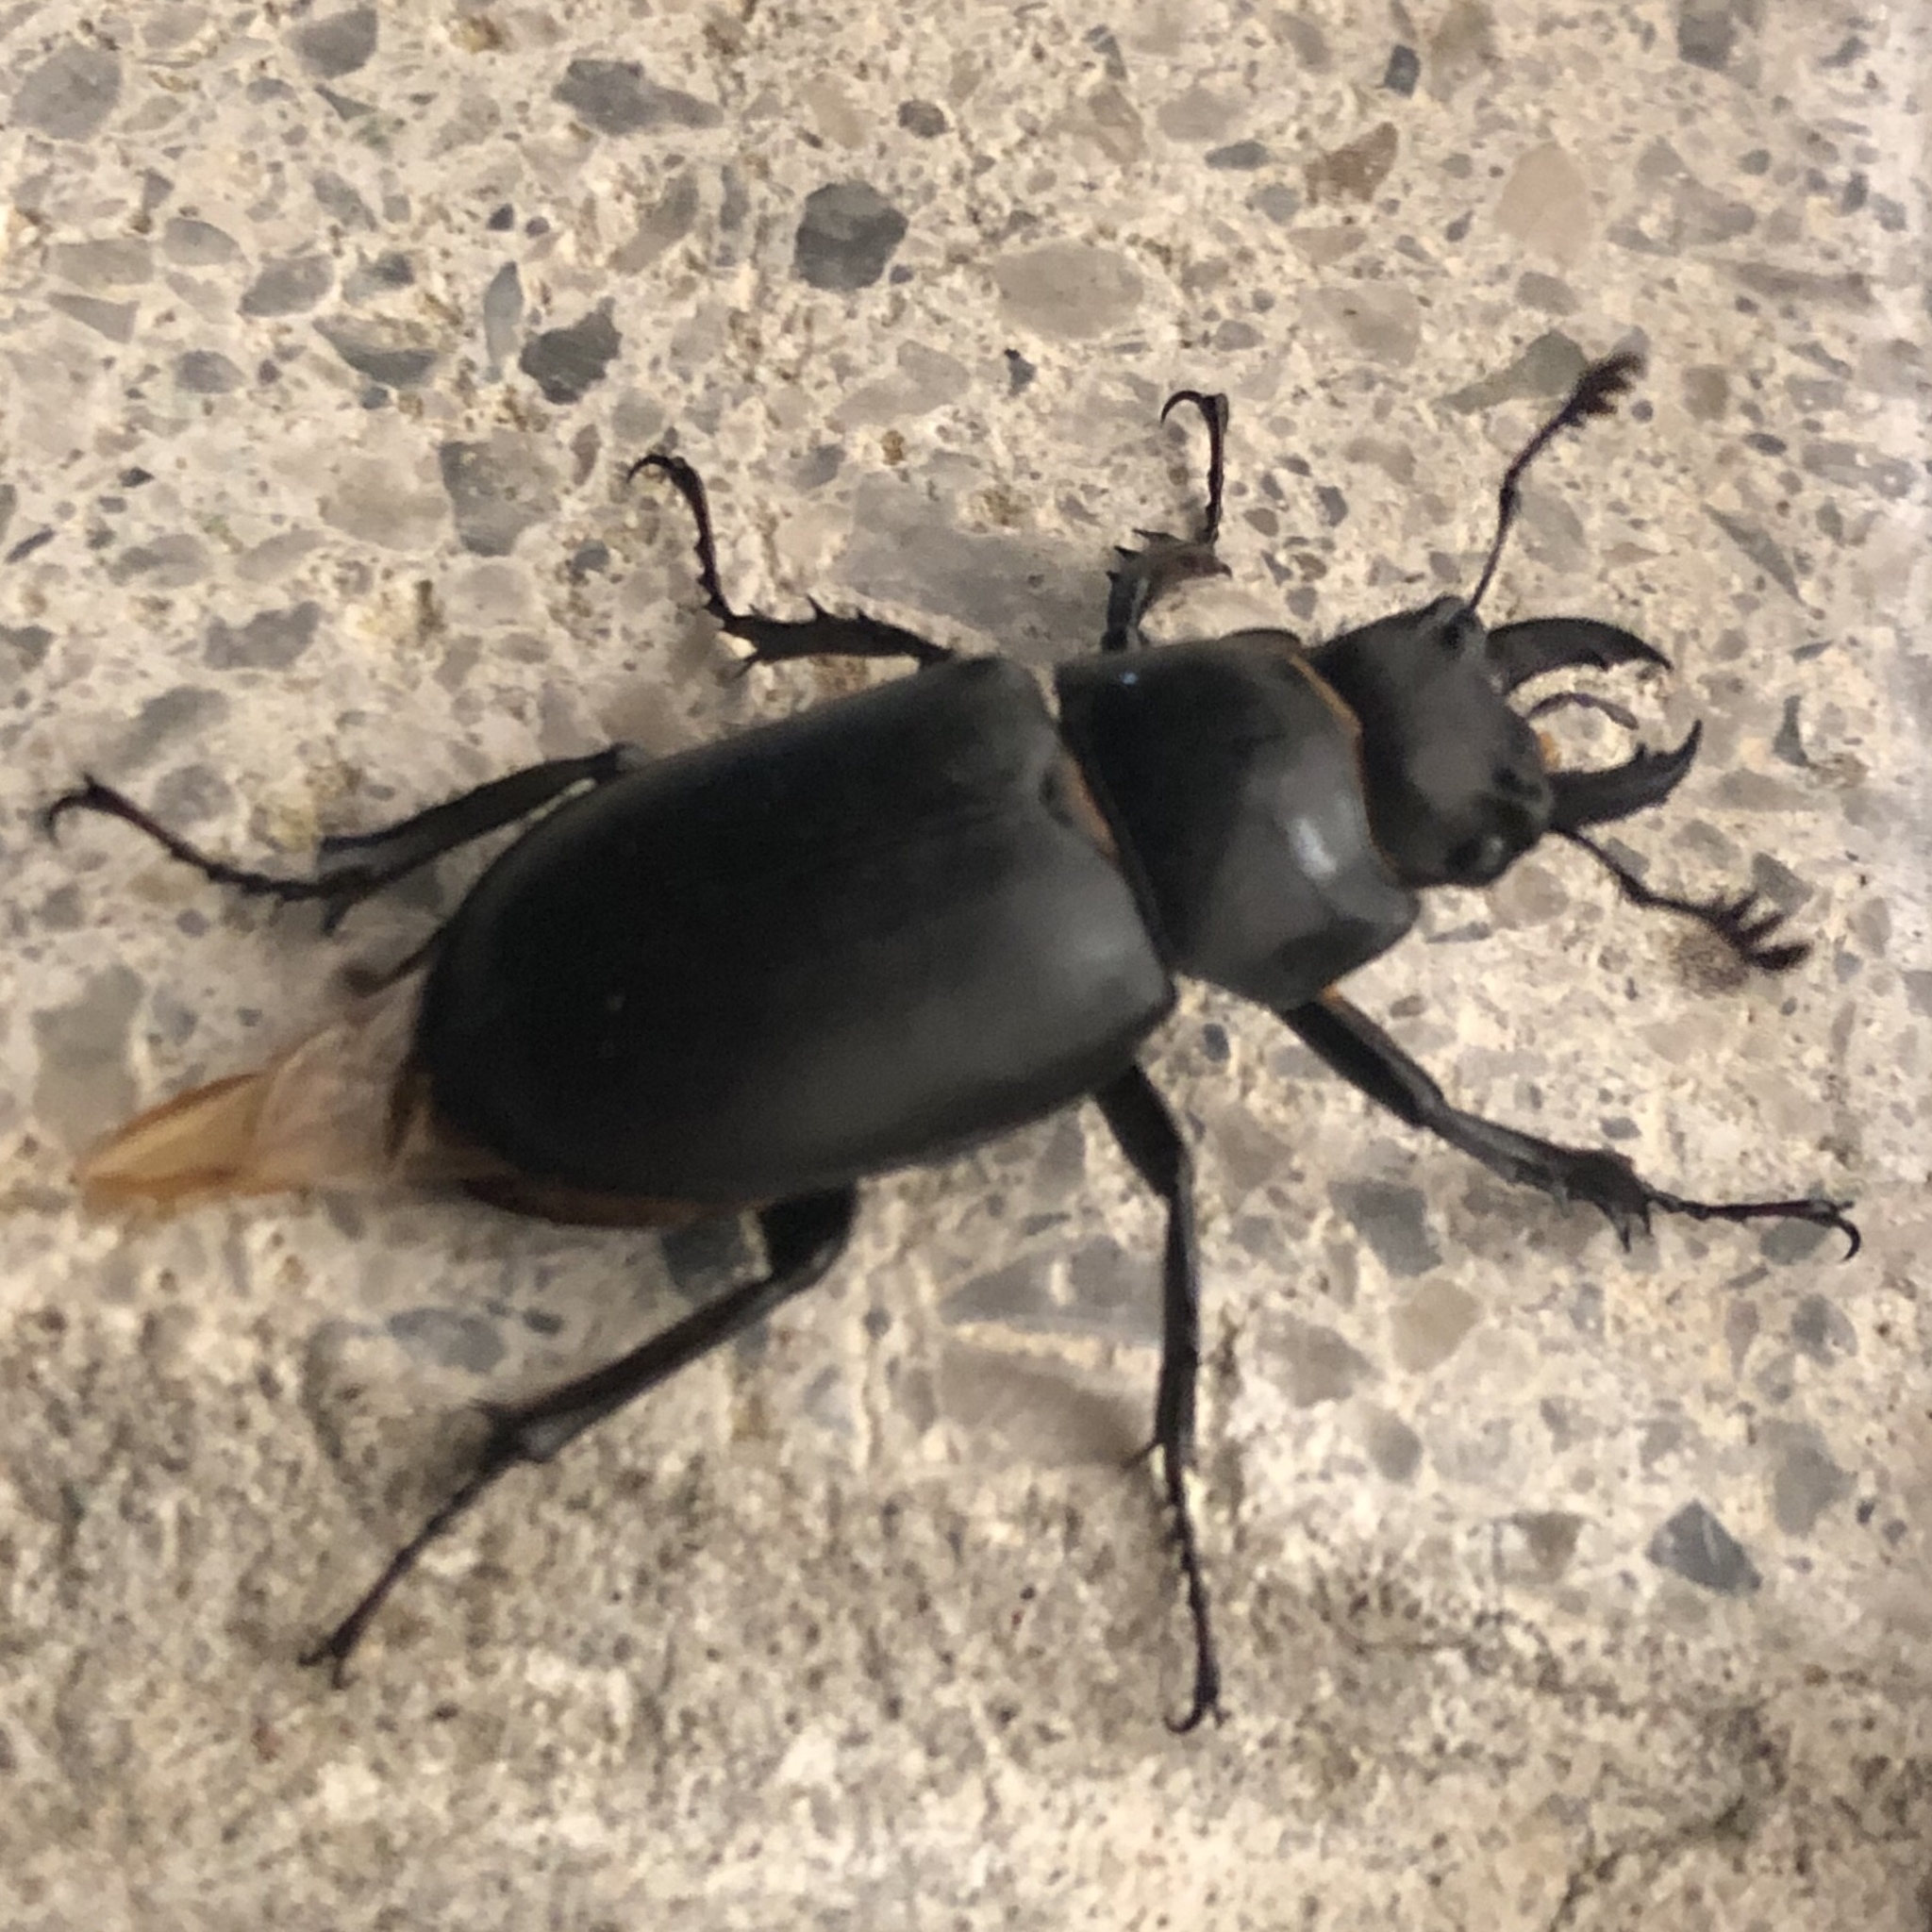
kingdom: Animalia
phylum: Arthropoda
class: Insecta
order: Coleoptera
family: Lucanidae
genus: Lucanus
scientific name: Lucanus placidus
